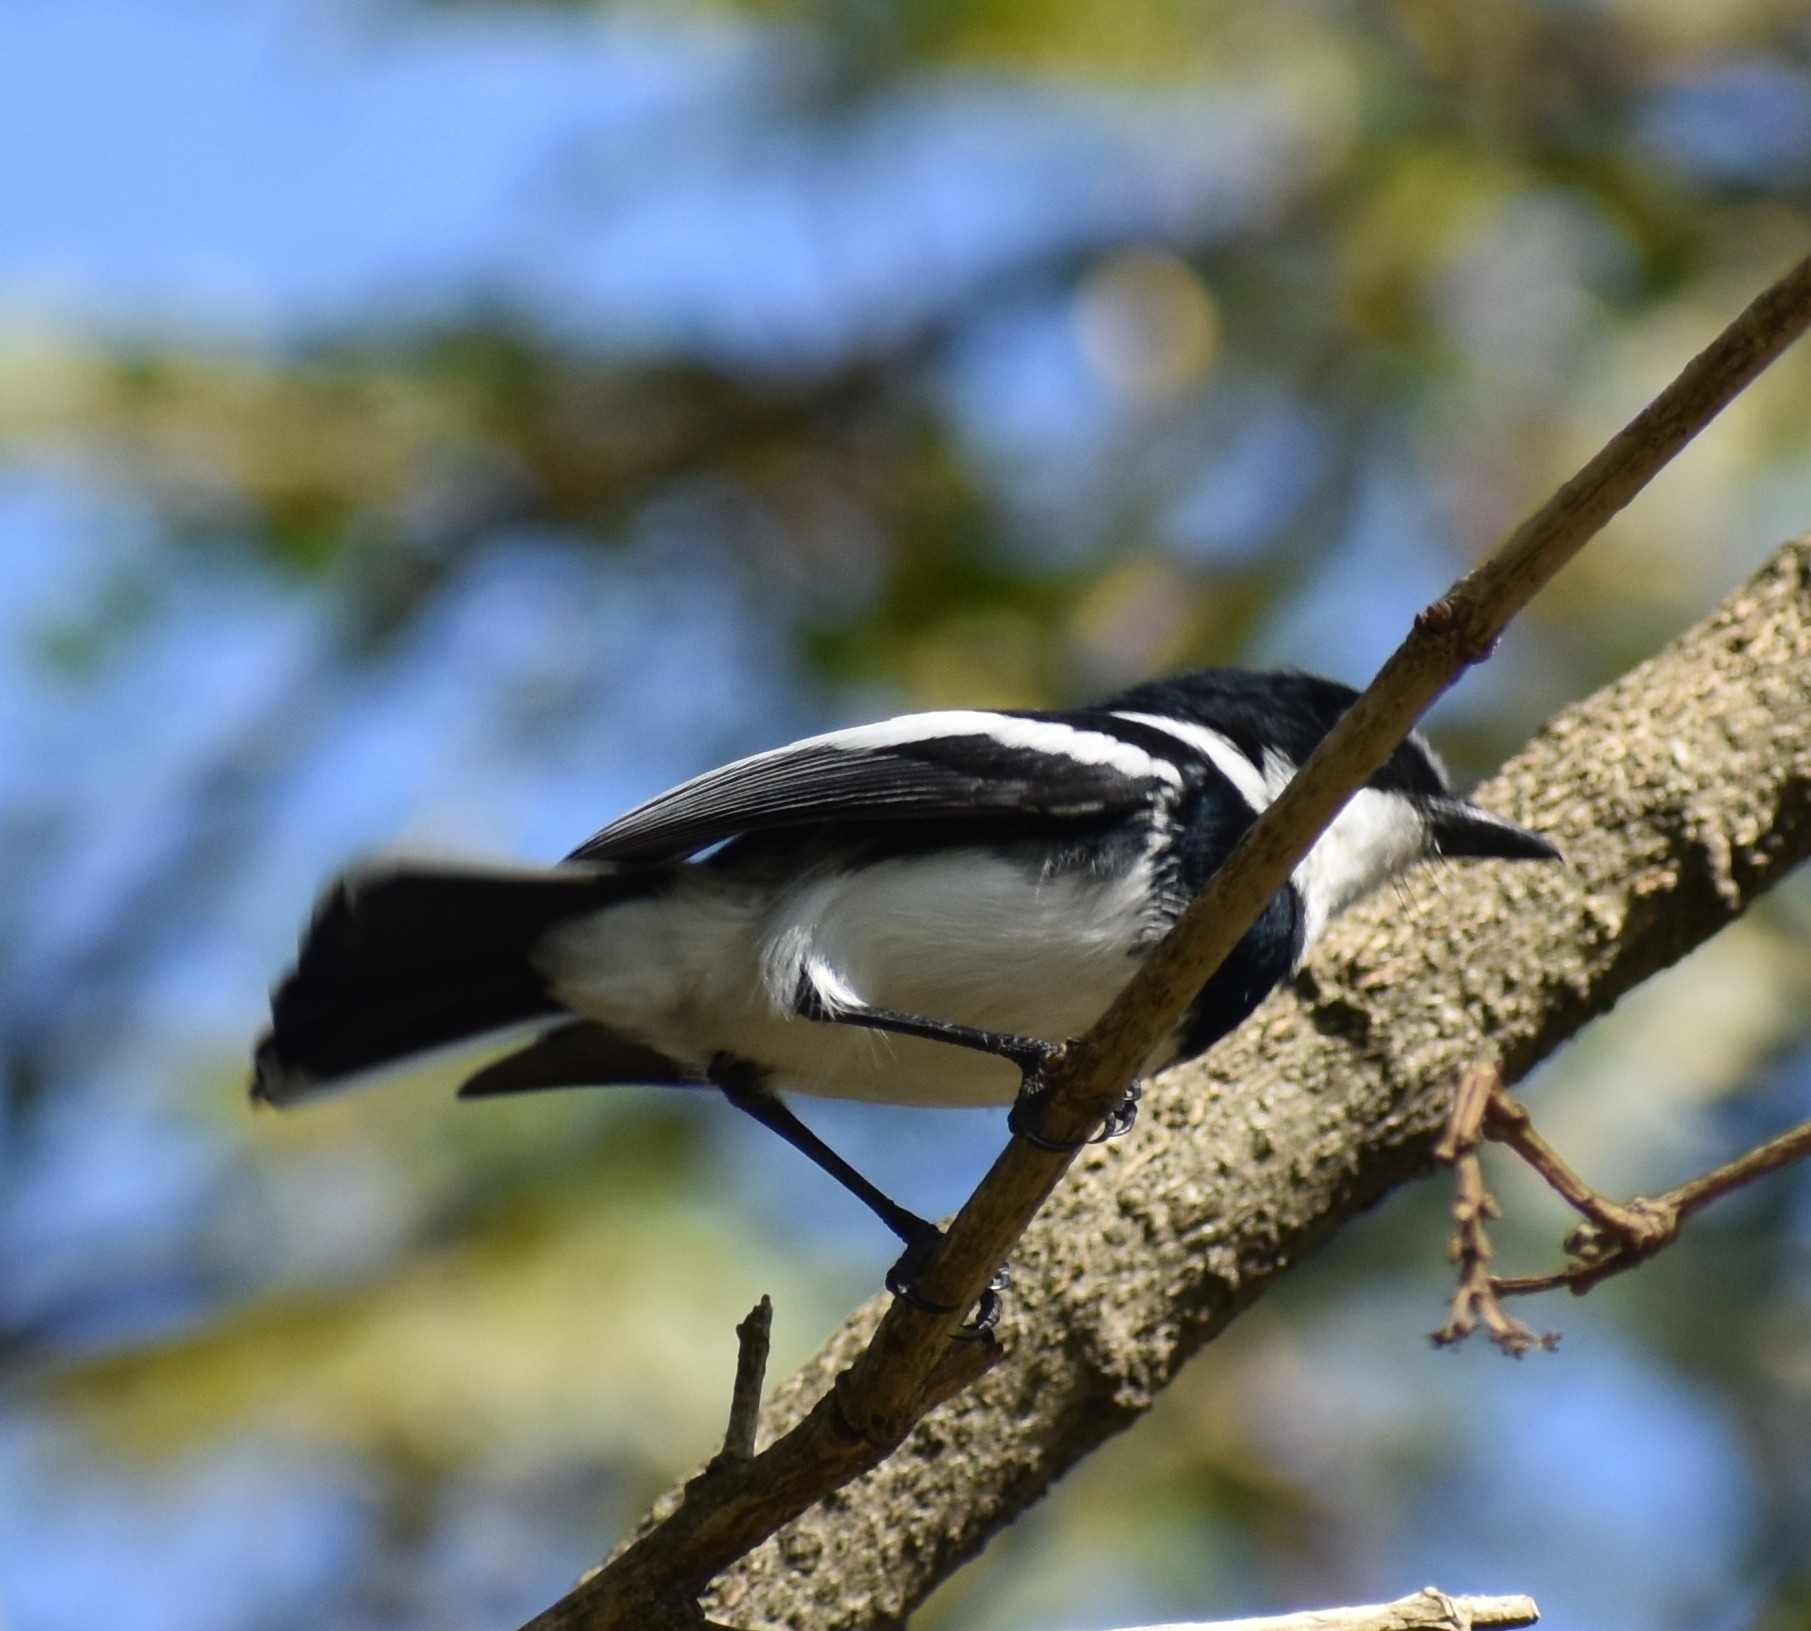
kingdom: Animalia
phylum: Chordata
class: Aves
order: Passeriformes
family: Platysteiridae
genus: Batis
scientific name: Batis molitor
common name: Chinspot batis
